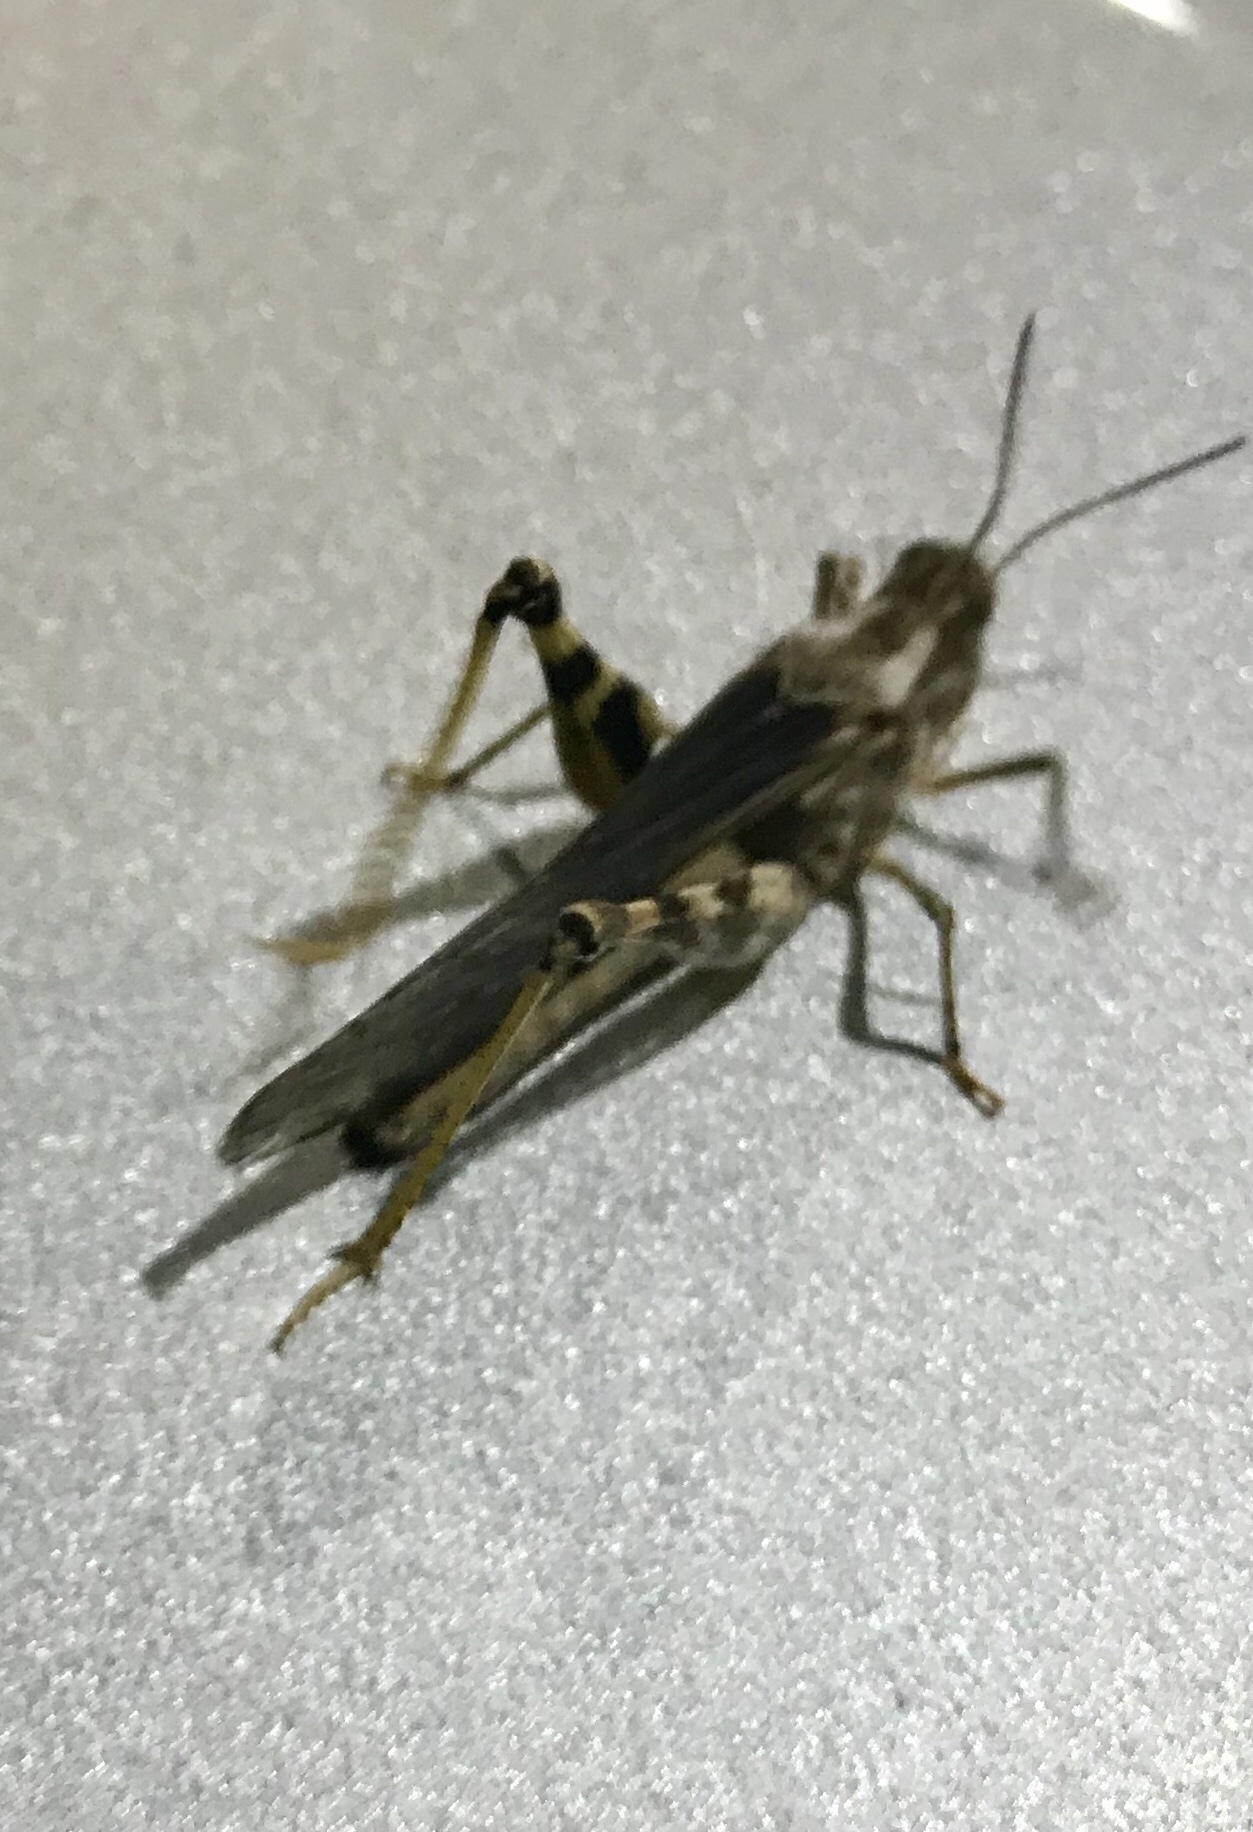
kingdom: Animalia
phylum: Arthropoda
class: Insecta
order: Orthoptera
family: Acrididae
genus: Conozoa
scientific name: Conozoa carinata
